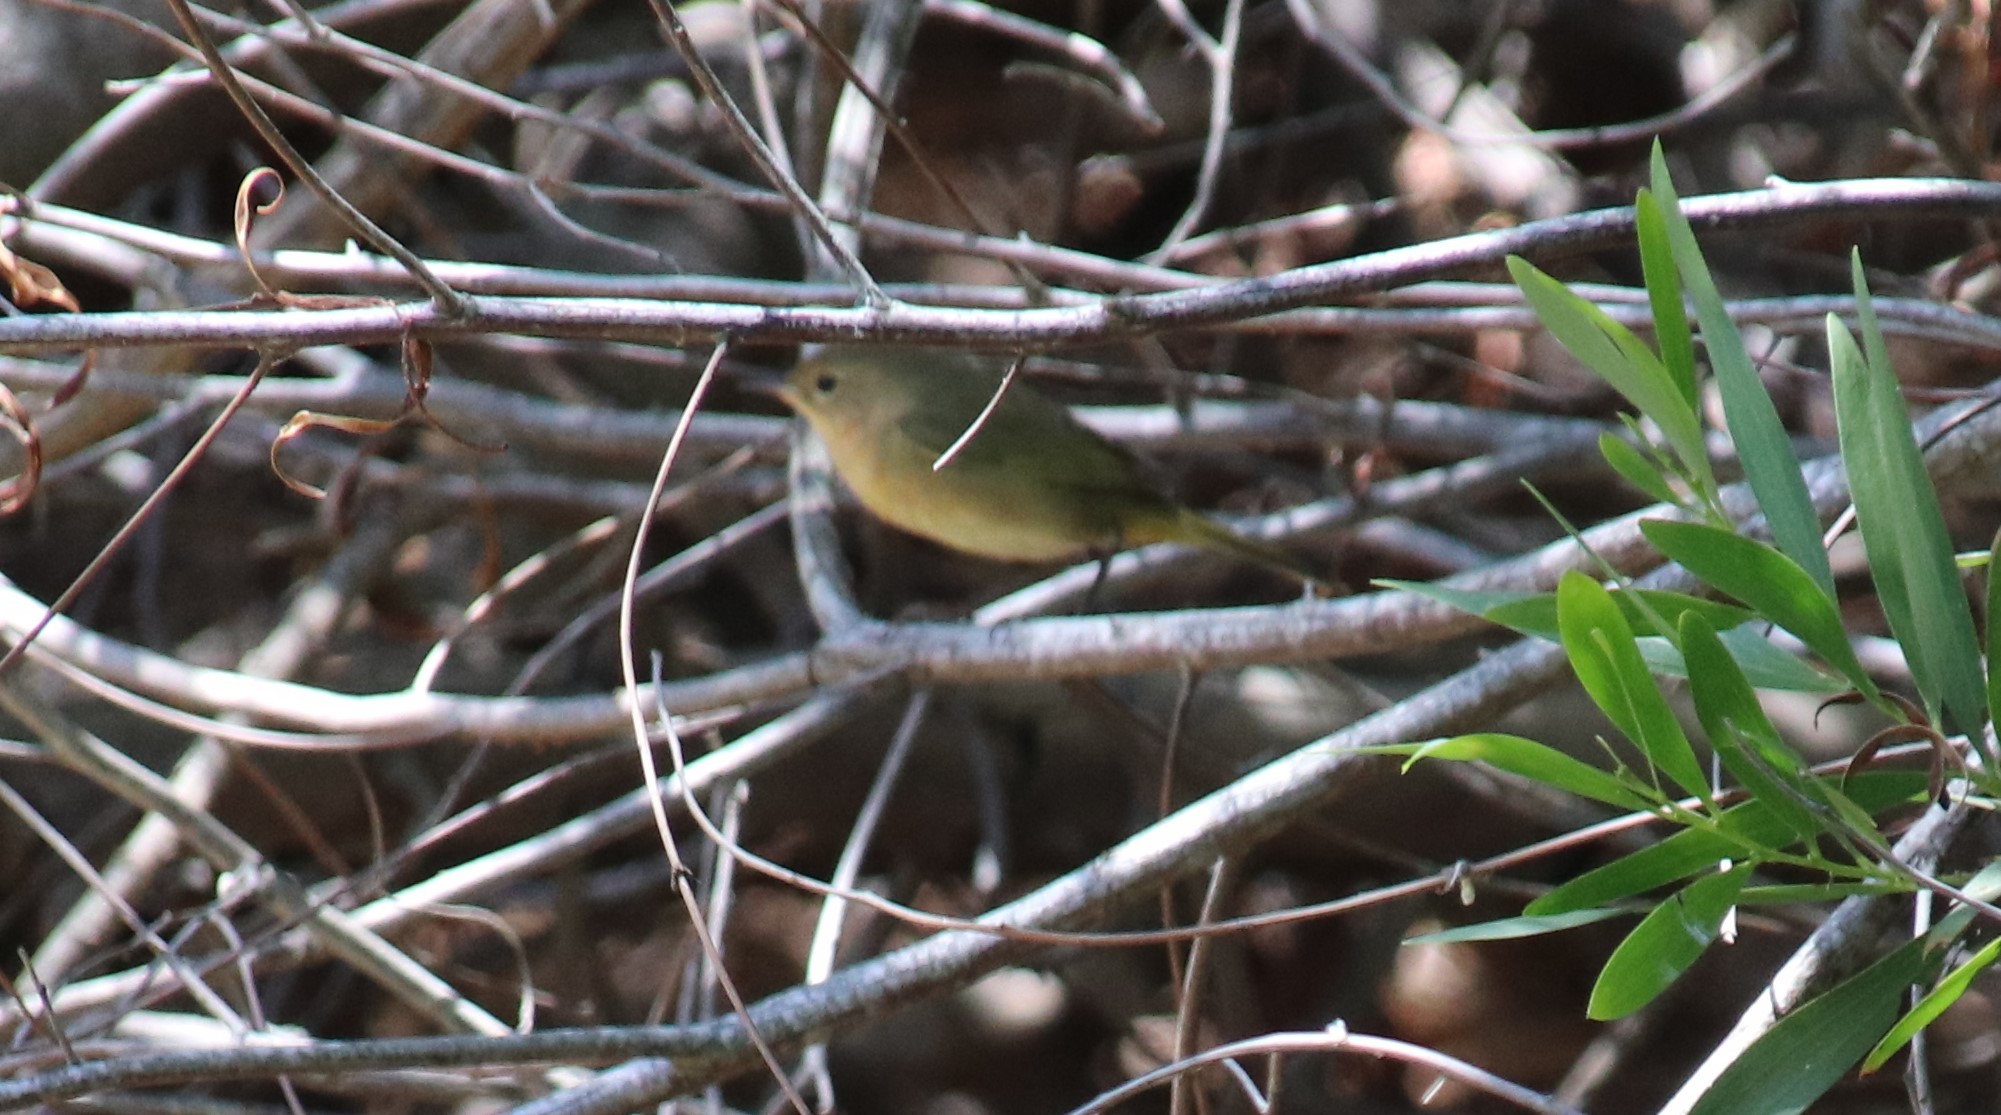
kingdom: Animalia
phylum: Chordata
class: Aves
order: Passeriformes
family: Parulidae
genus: Geothlypis
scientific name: Geothlypis trichas
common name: Common yellowthroat
